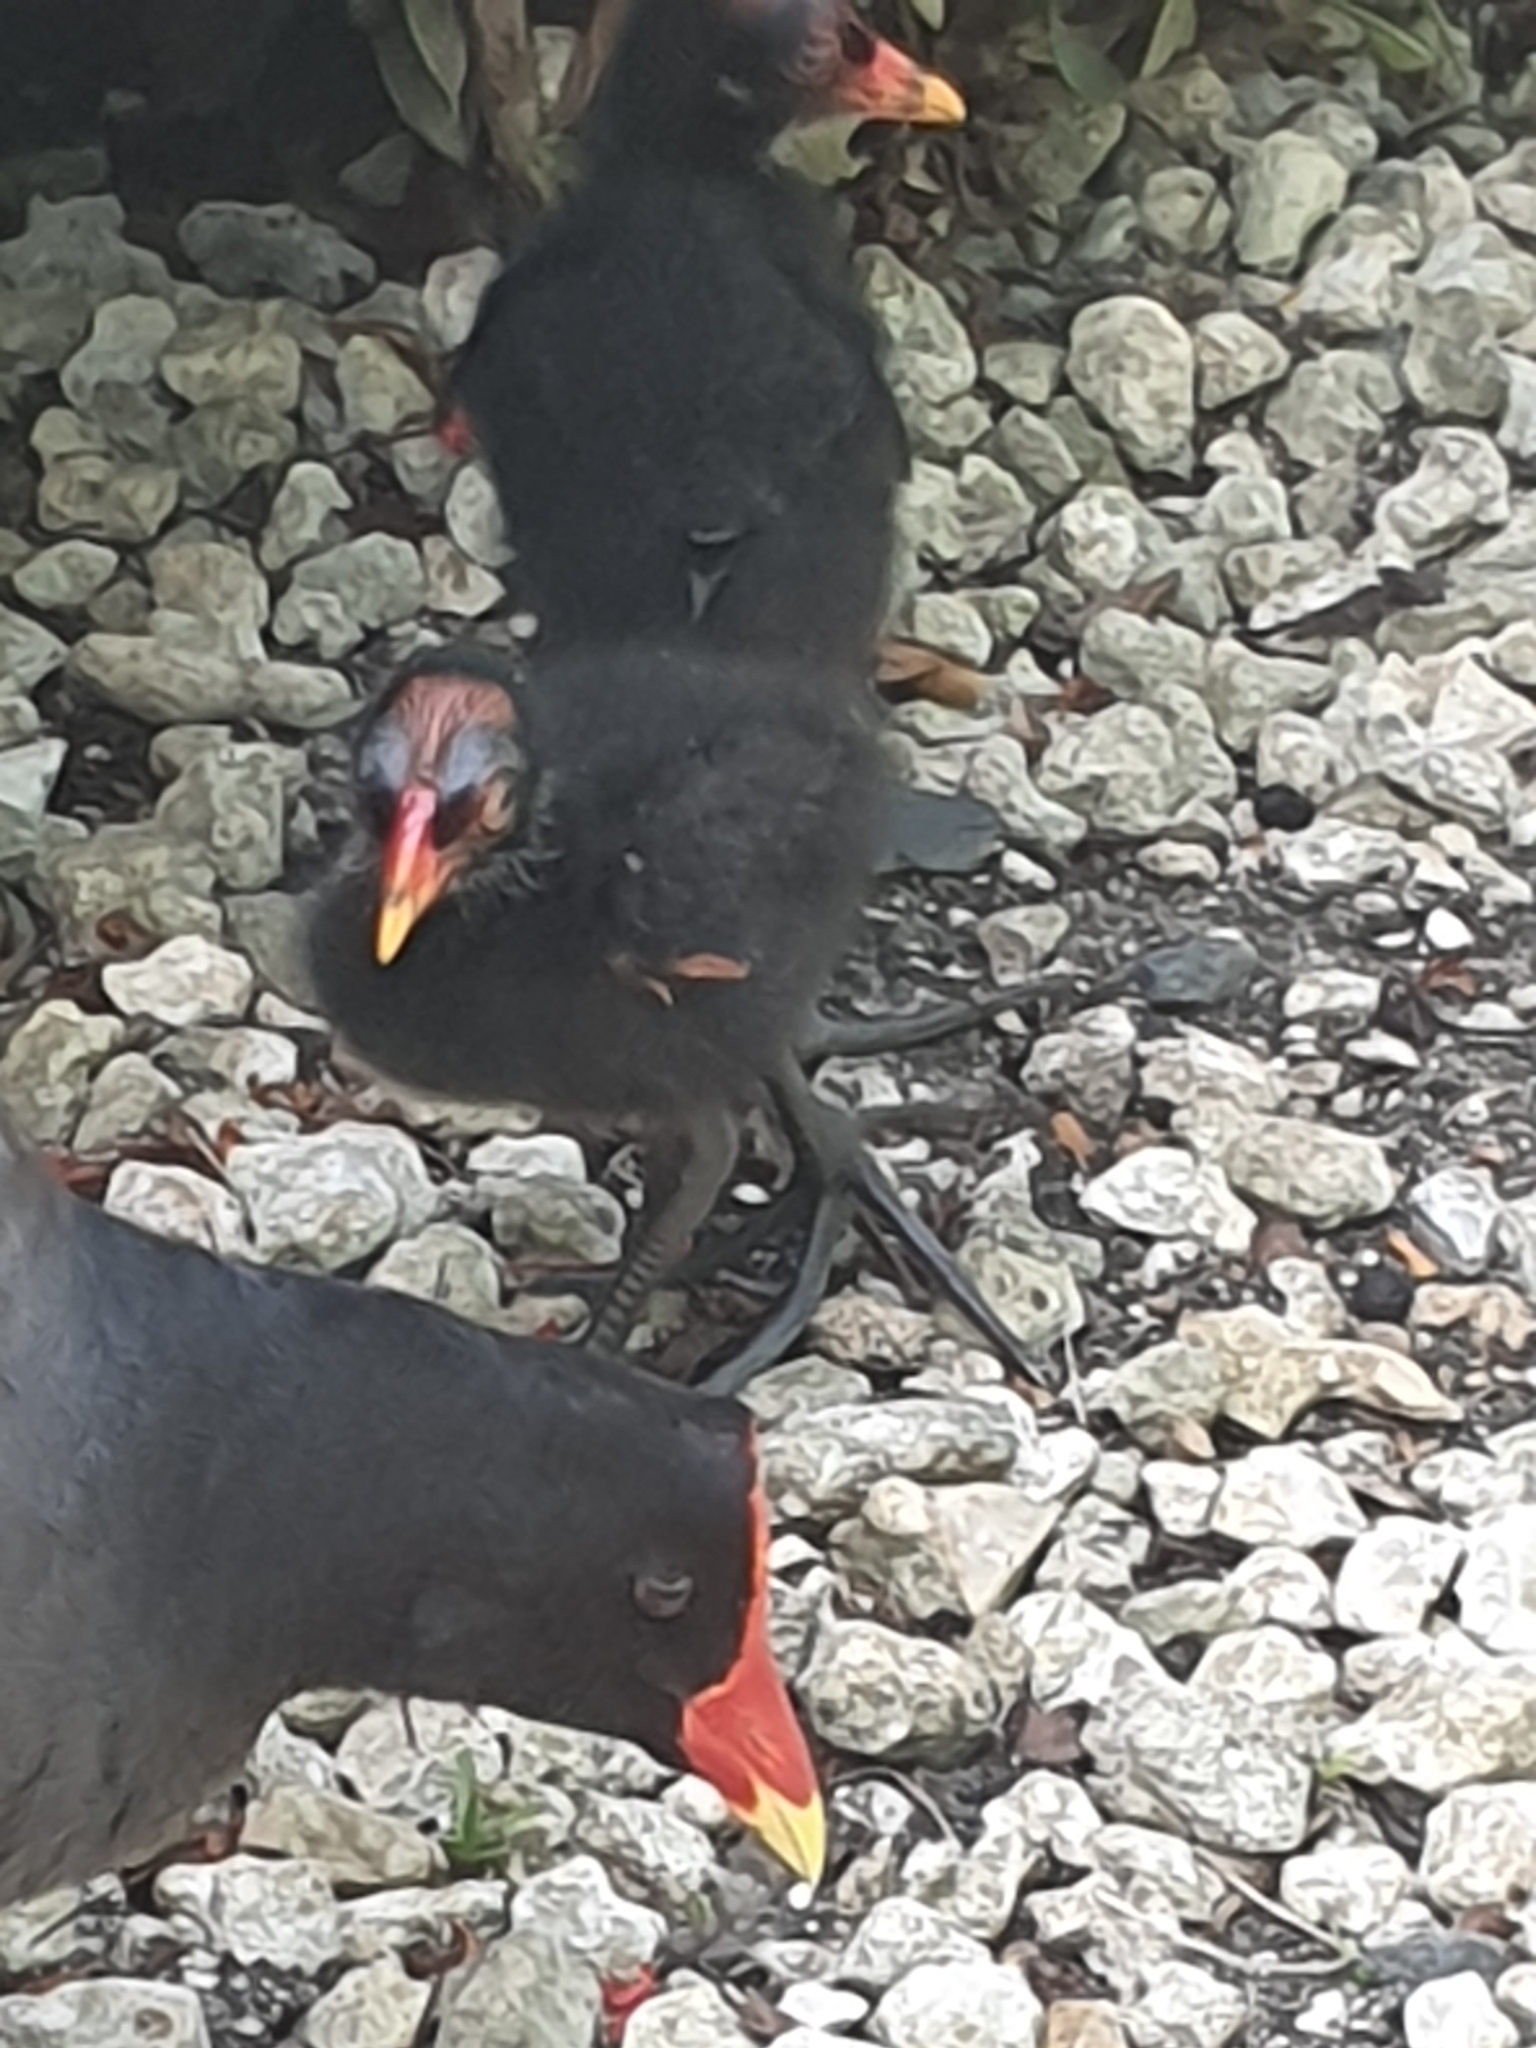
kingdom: Animalia
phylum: Chordata
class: Aves
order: Gruiformes
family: Rallidae
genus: Gallinula
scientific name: Gallinula chloropus
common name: Common moorhen
